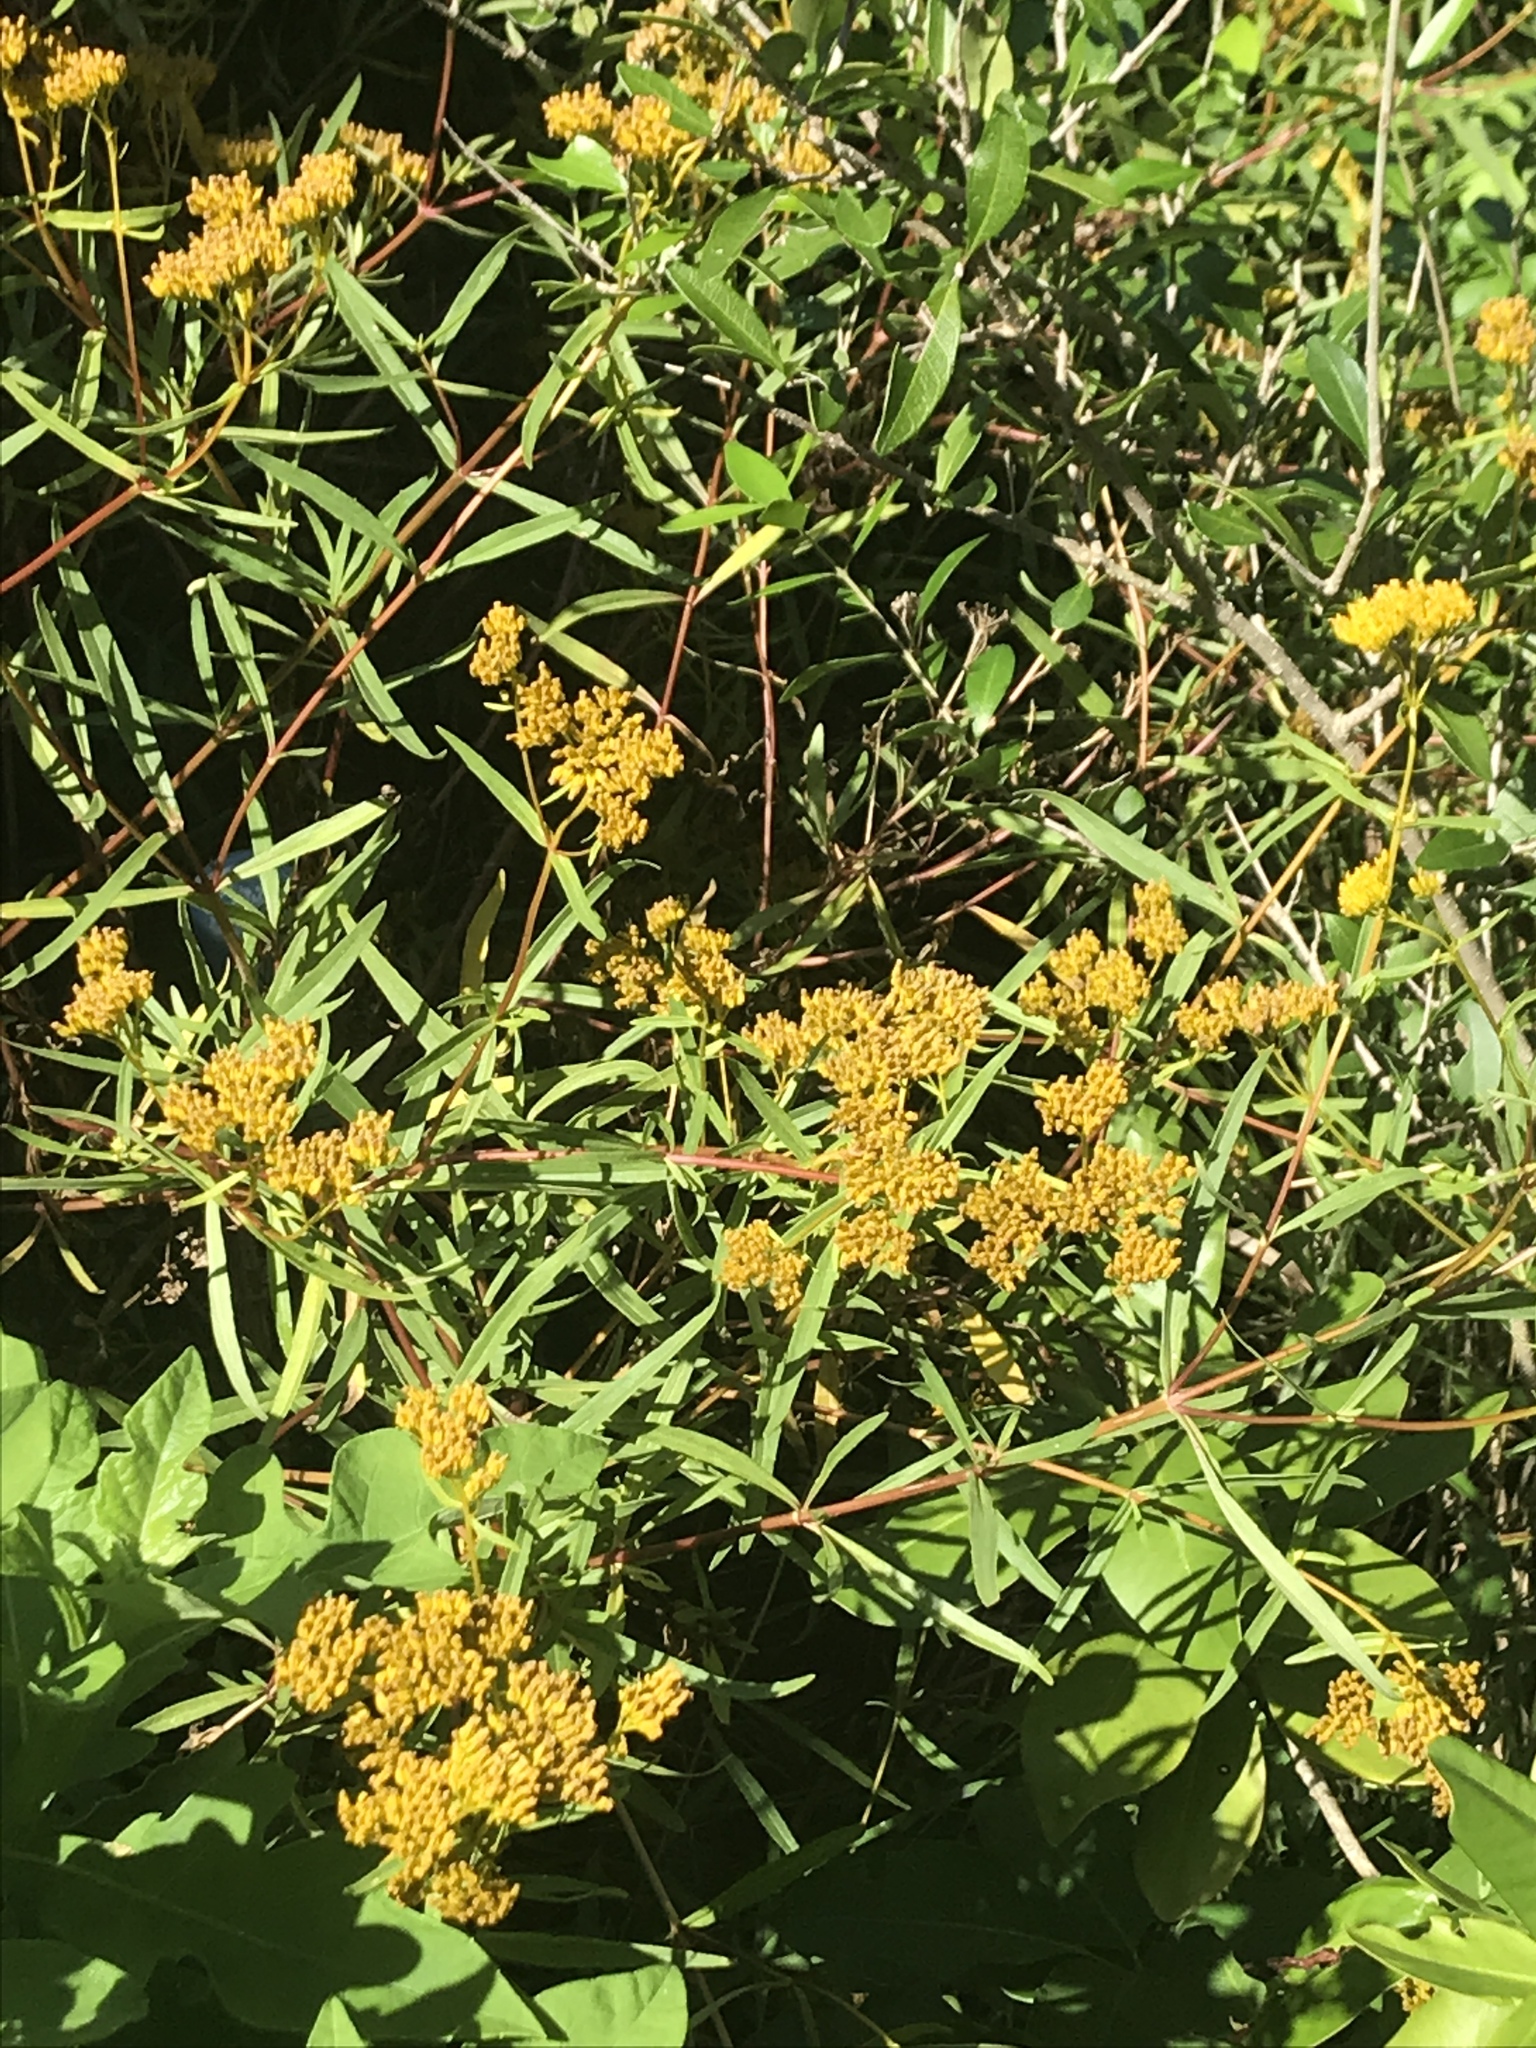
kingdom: Plantae
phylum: Tracheophyta
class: Magnoliopsida
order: Asterales
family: Asteraceae
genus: Flaveria
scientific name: Flaveria linearis
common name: Yellowtop
